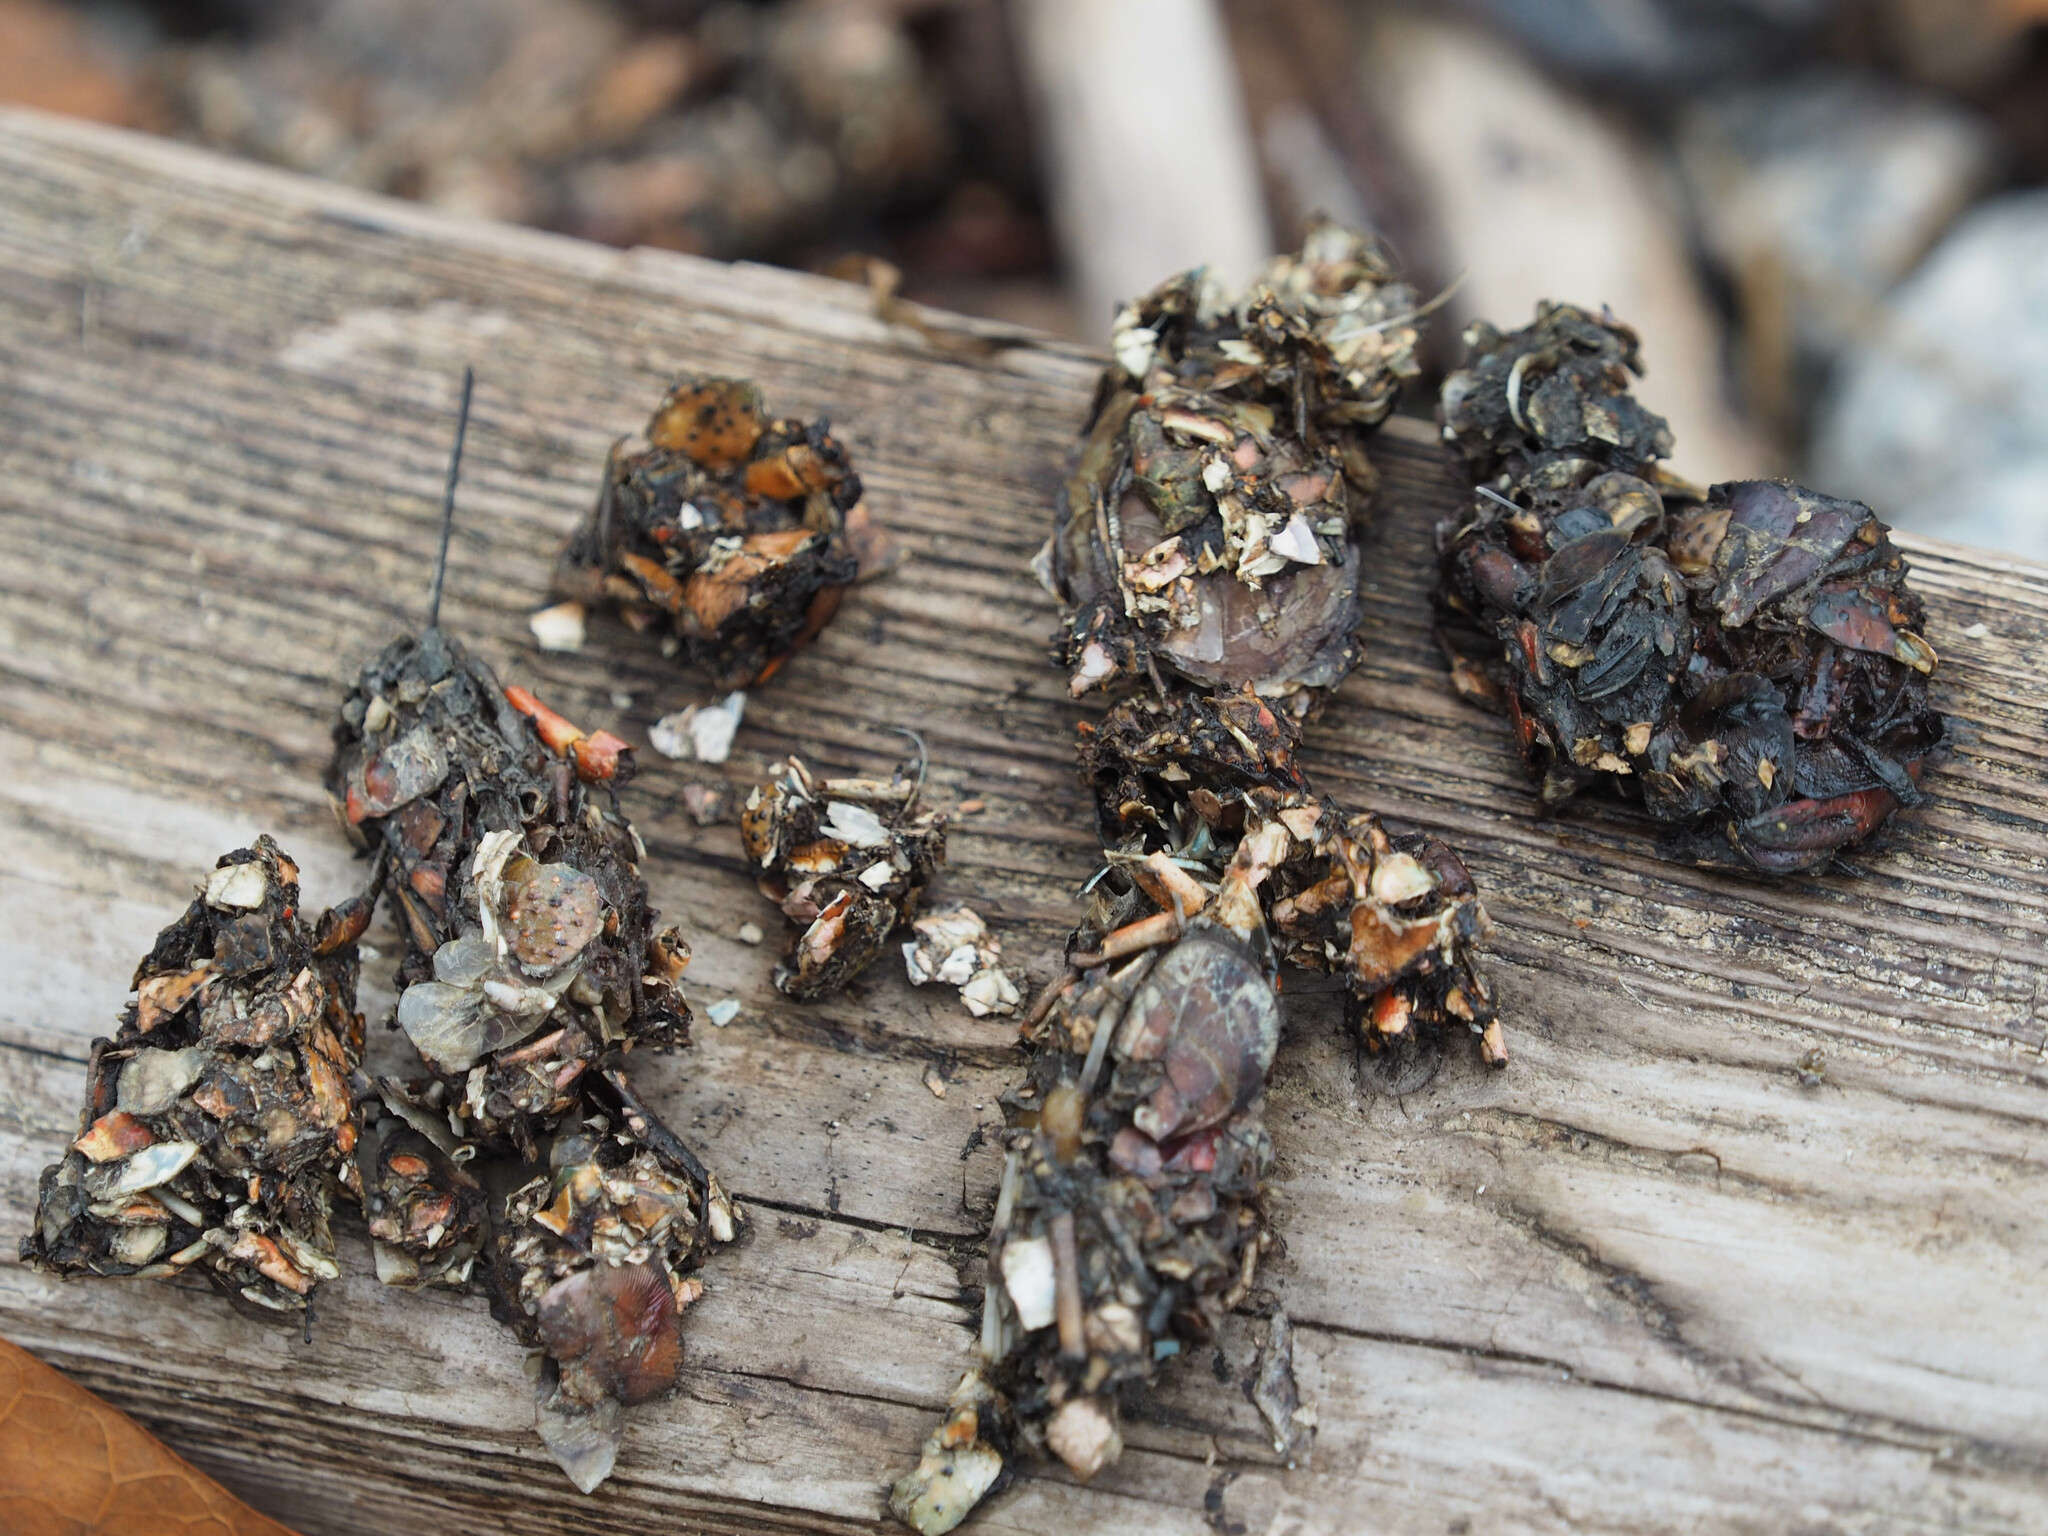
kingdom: Animalia
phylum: Chordata
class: Mammalia
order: Carnivora
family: Mustelidae
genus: Lontra
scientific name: Lontra canadensis
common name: North american river otter
